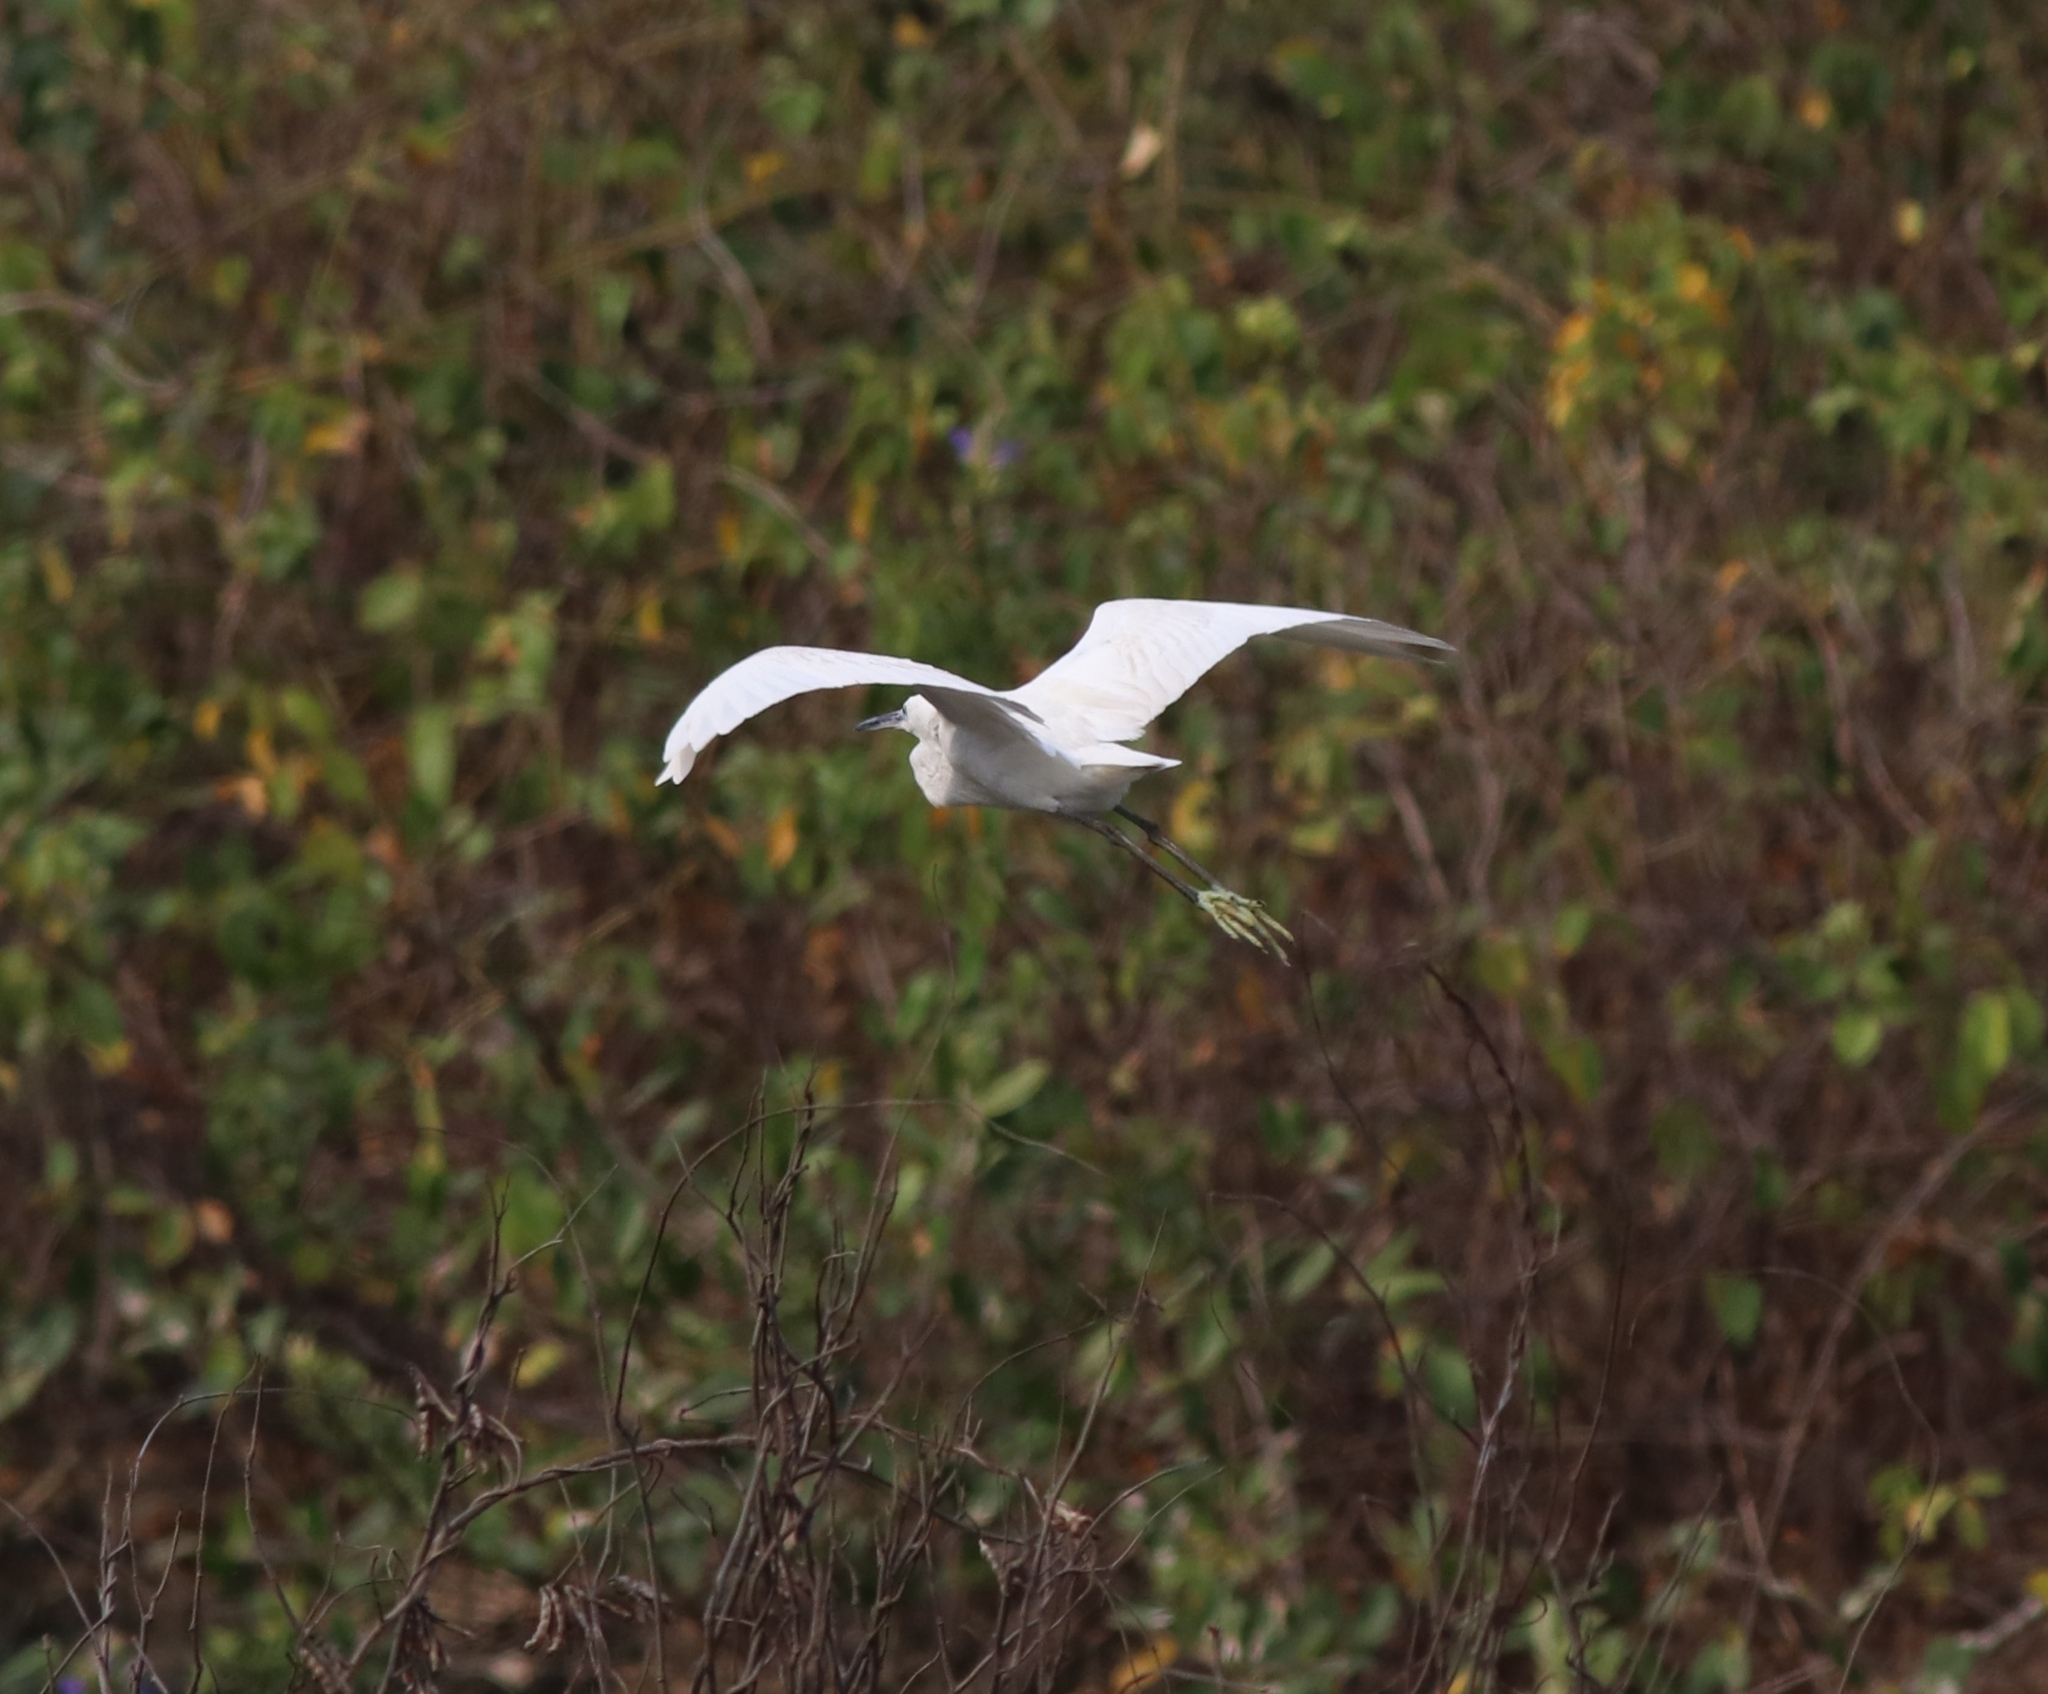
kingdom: Animalia
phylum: Chordata
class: Aves
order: Pelecaniformes
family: Ardeidae
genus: Egretta
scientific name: Egretta garzetta
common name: Little egret
